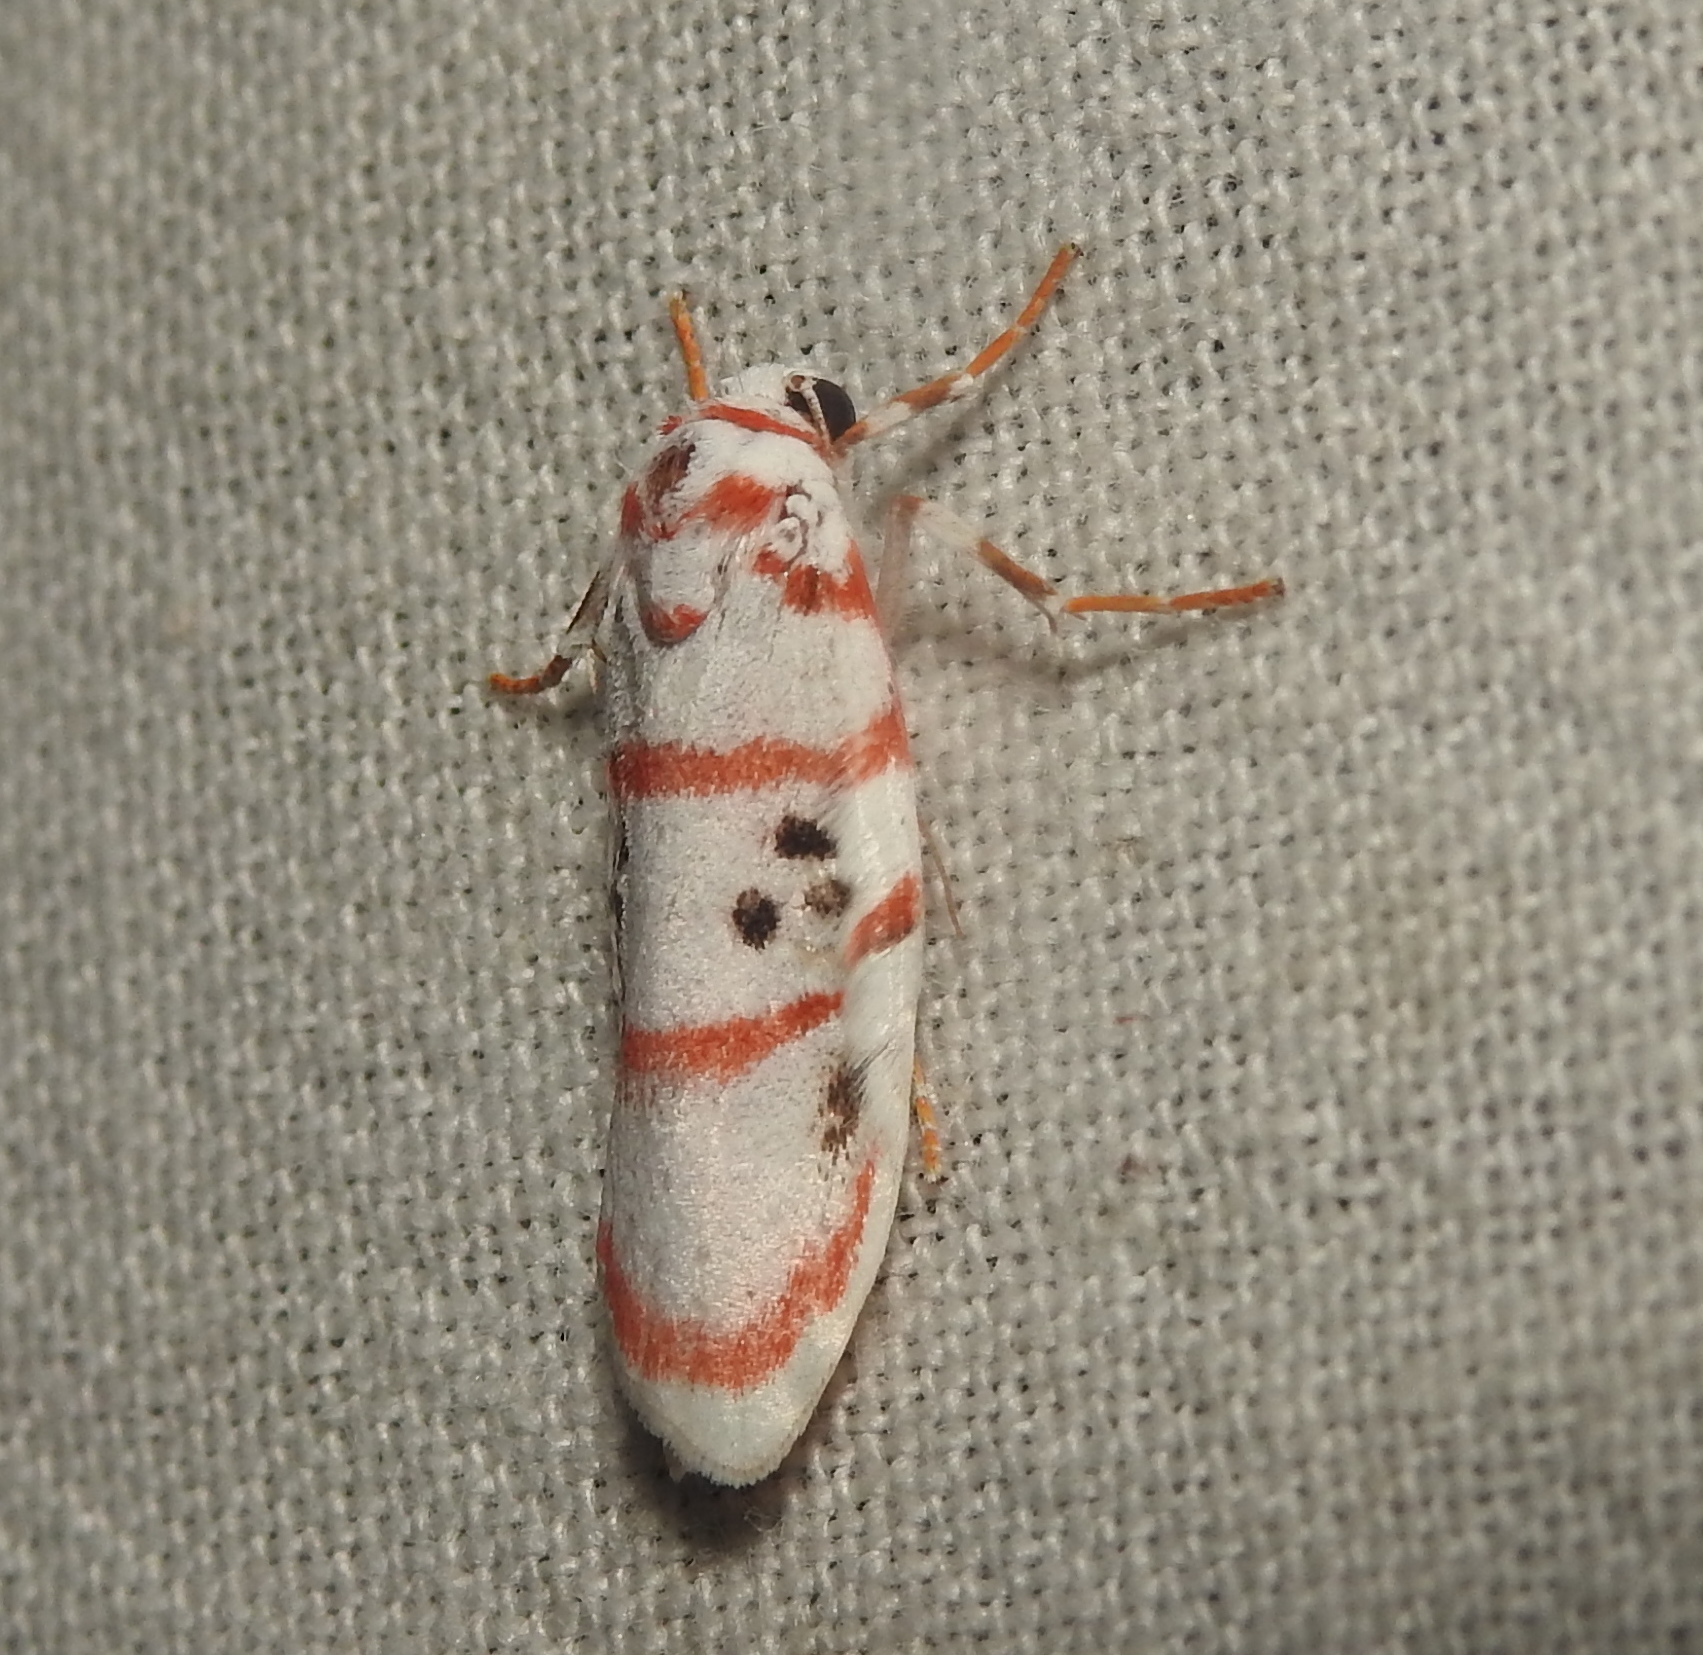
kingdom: Animalia
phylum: Arthropoda
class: Insecta
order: Lepidoptera
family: Erebidae
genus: Cyana
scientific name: Cyana peregrina
